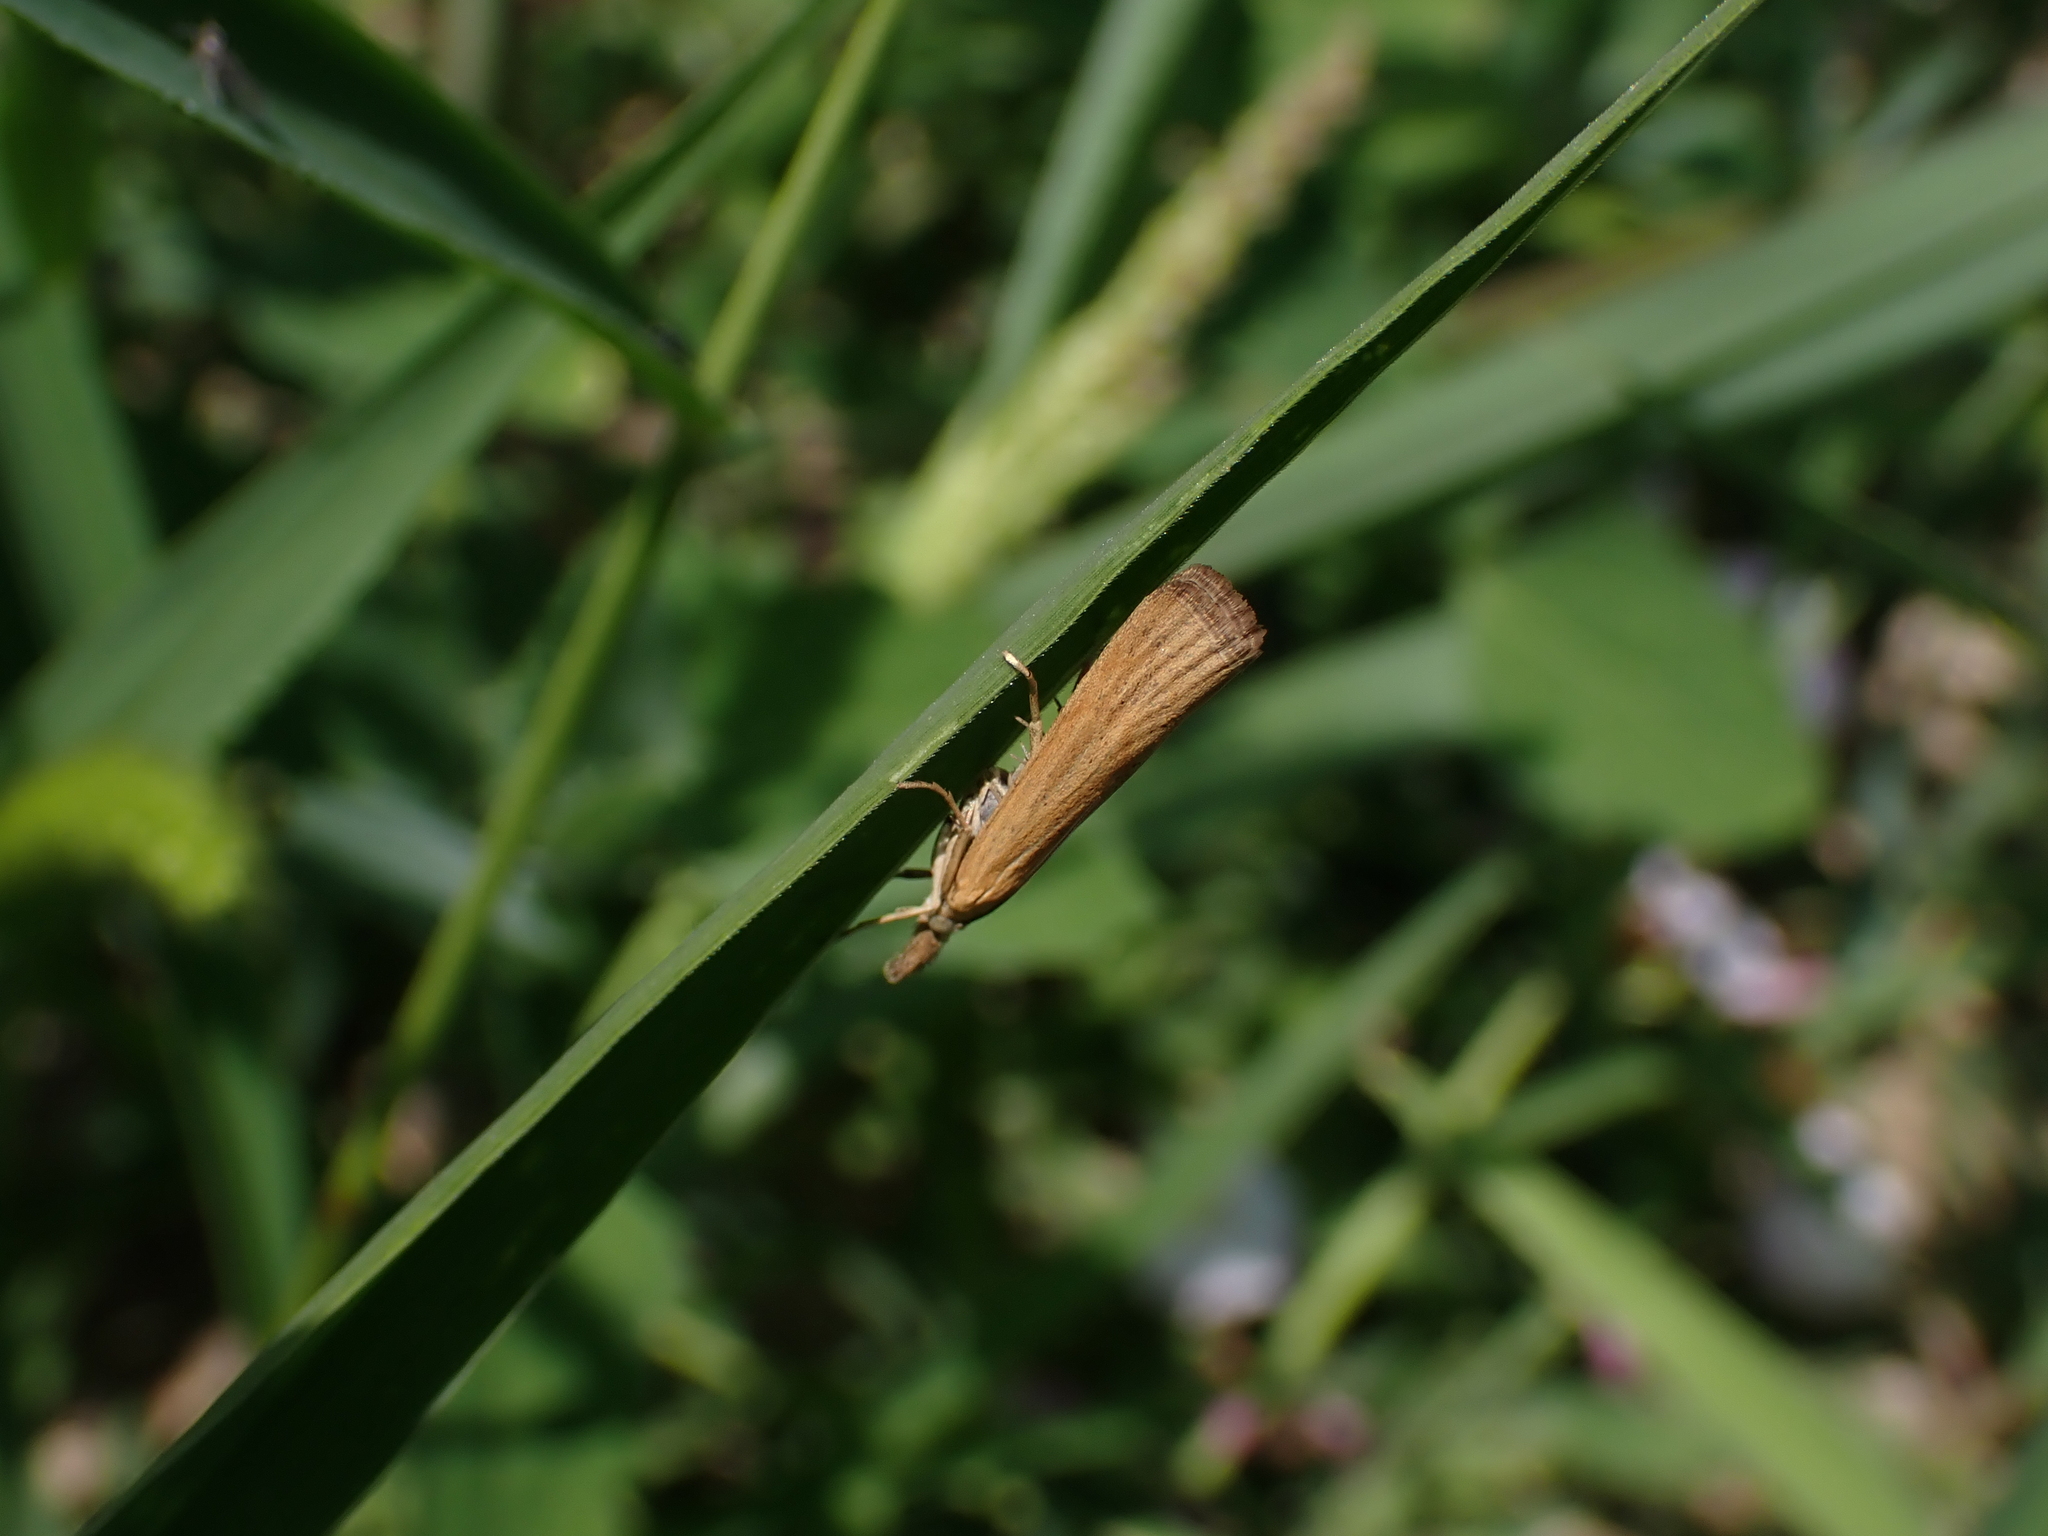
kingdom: Animalia
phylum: Arthropoda
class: Insecta
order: Lepidoptera
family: Crambidae
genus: Pediasia
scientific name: Pediasia luteella
